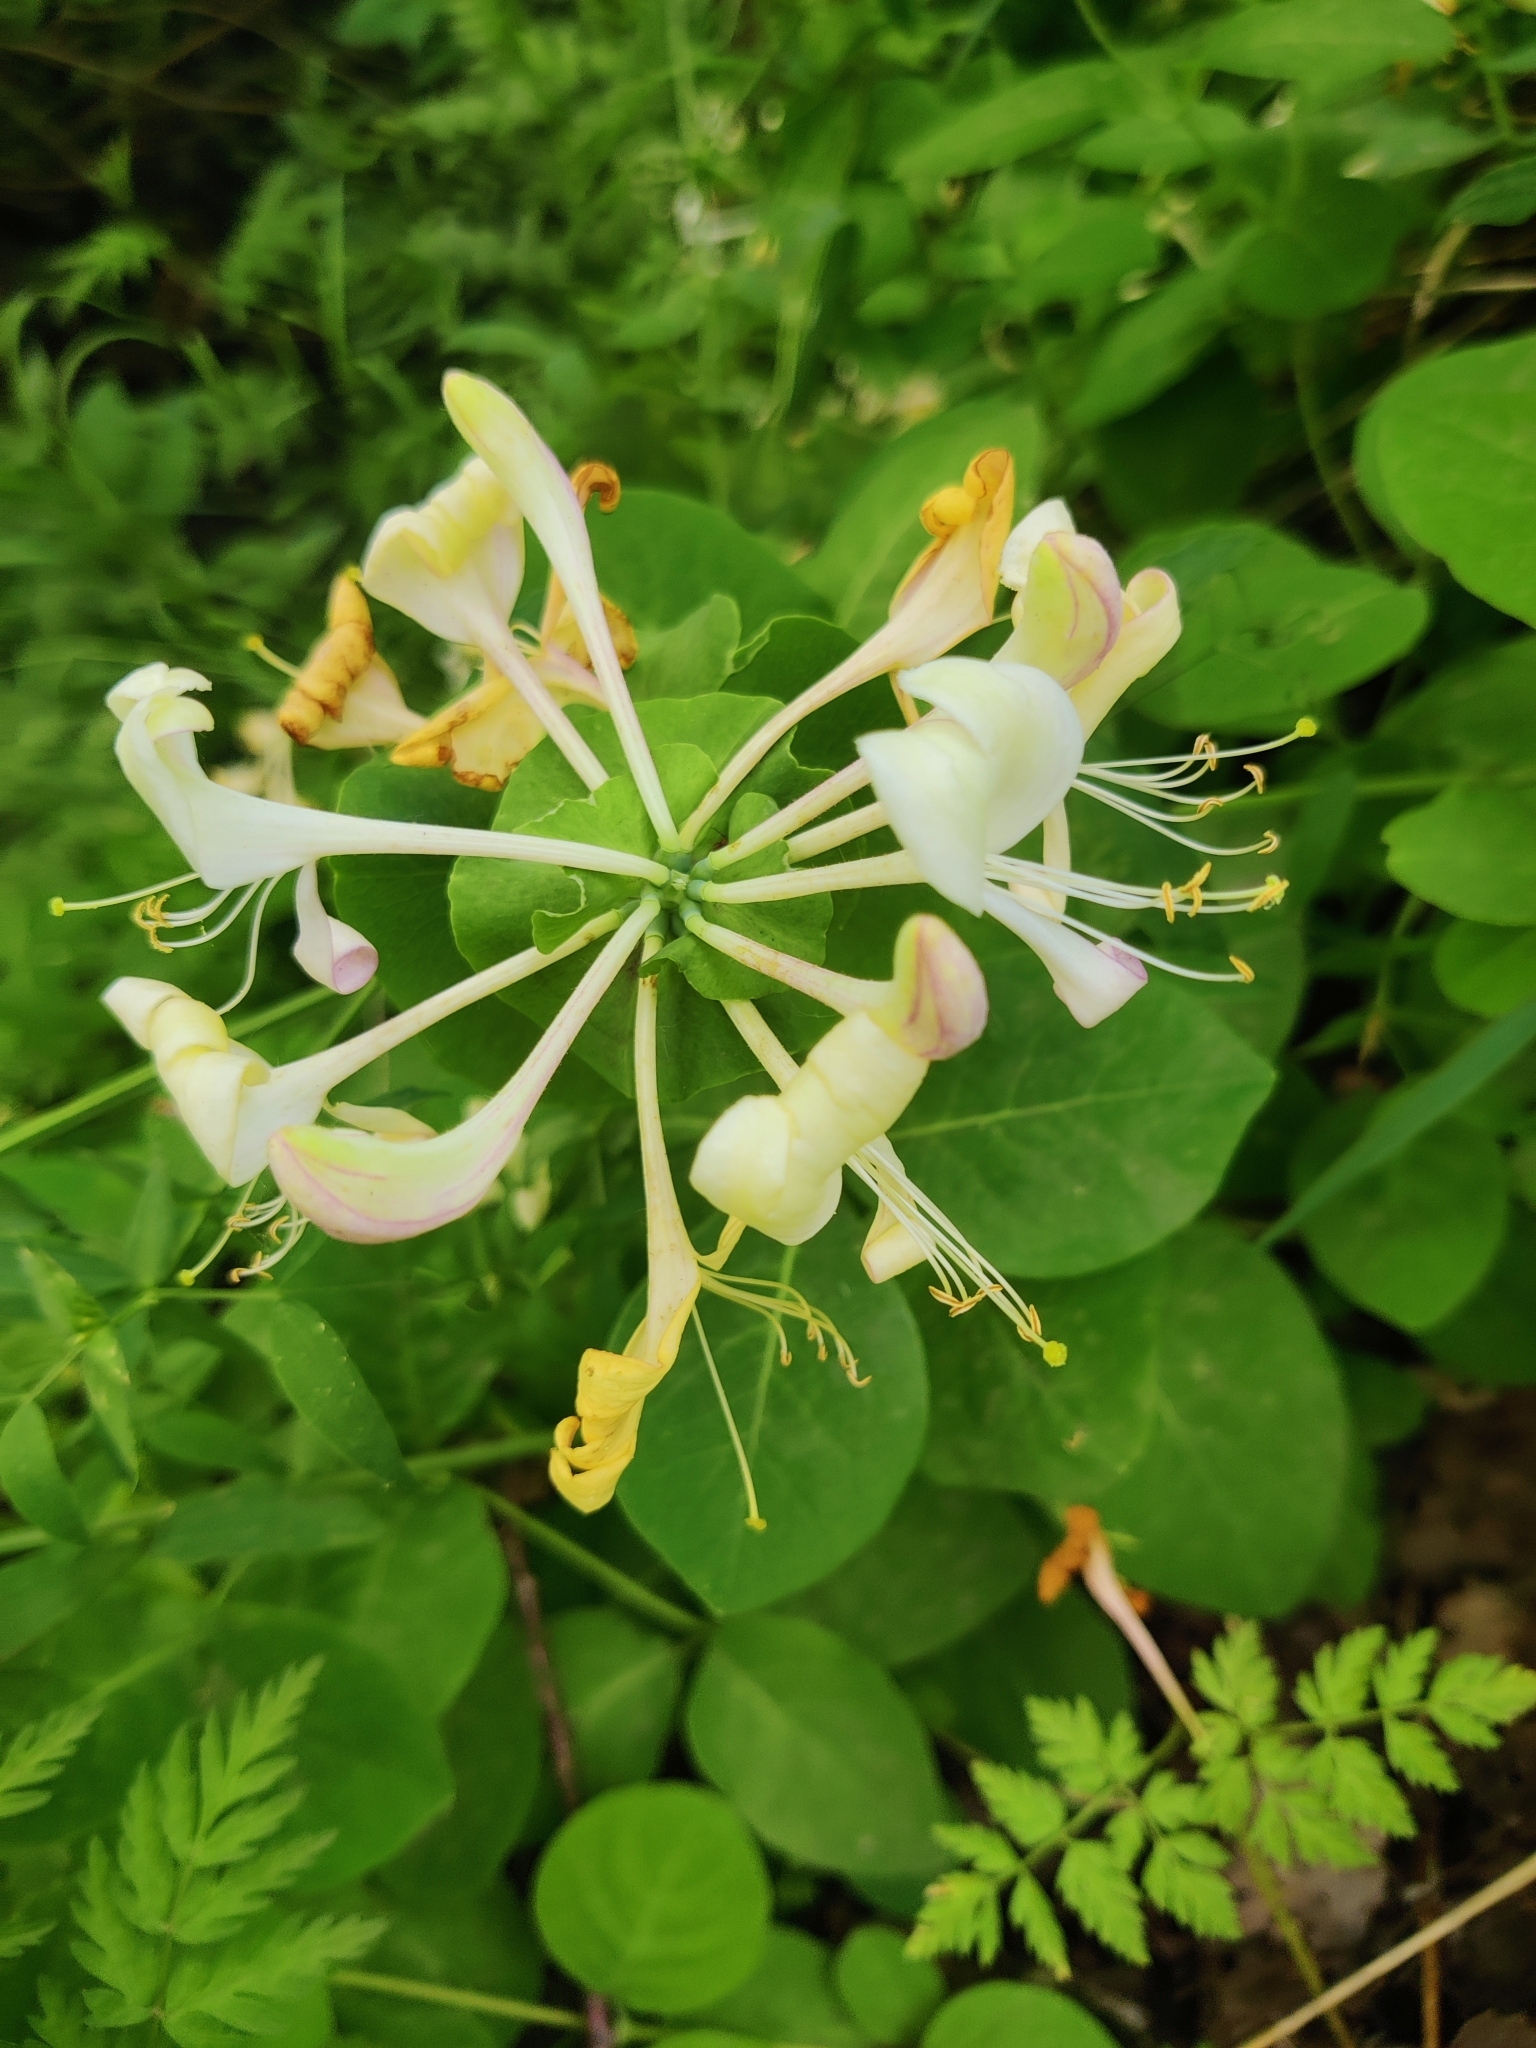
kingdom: Plantae
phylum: Tracheophyta
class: Magnoliopsida
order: Dipsacales
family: Caprifoliaceae
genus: Lonicera
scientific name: Lonicera caprifolium
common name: Perfoliate honeysuckle
